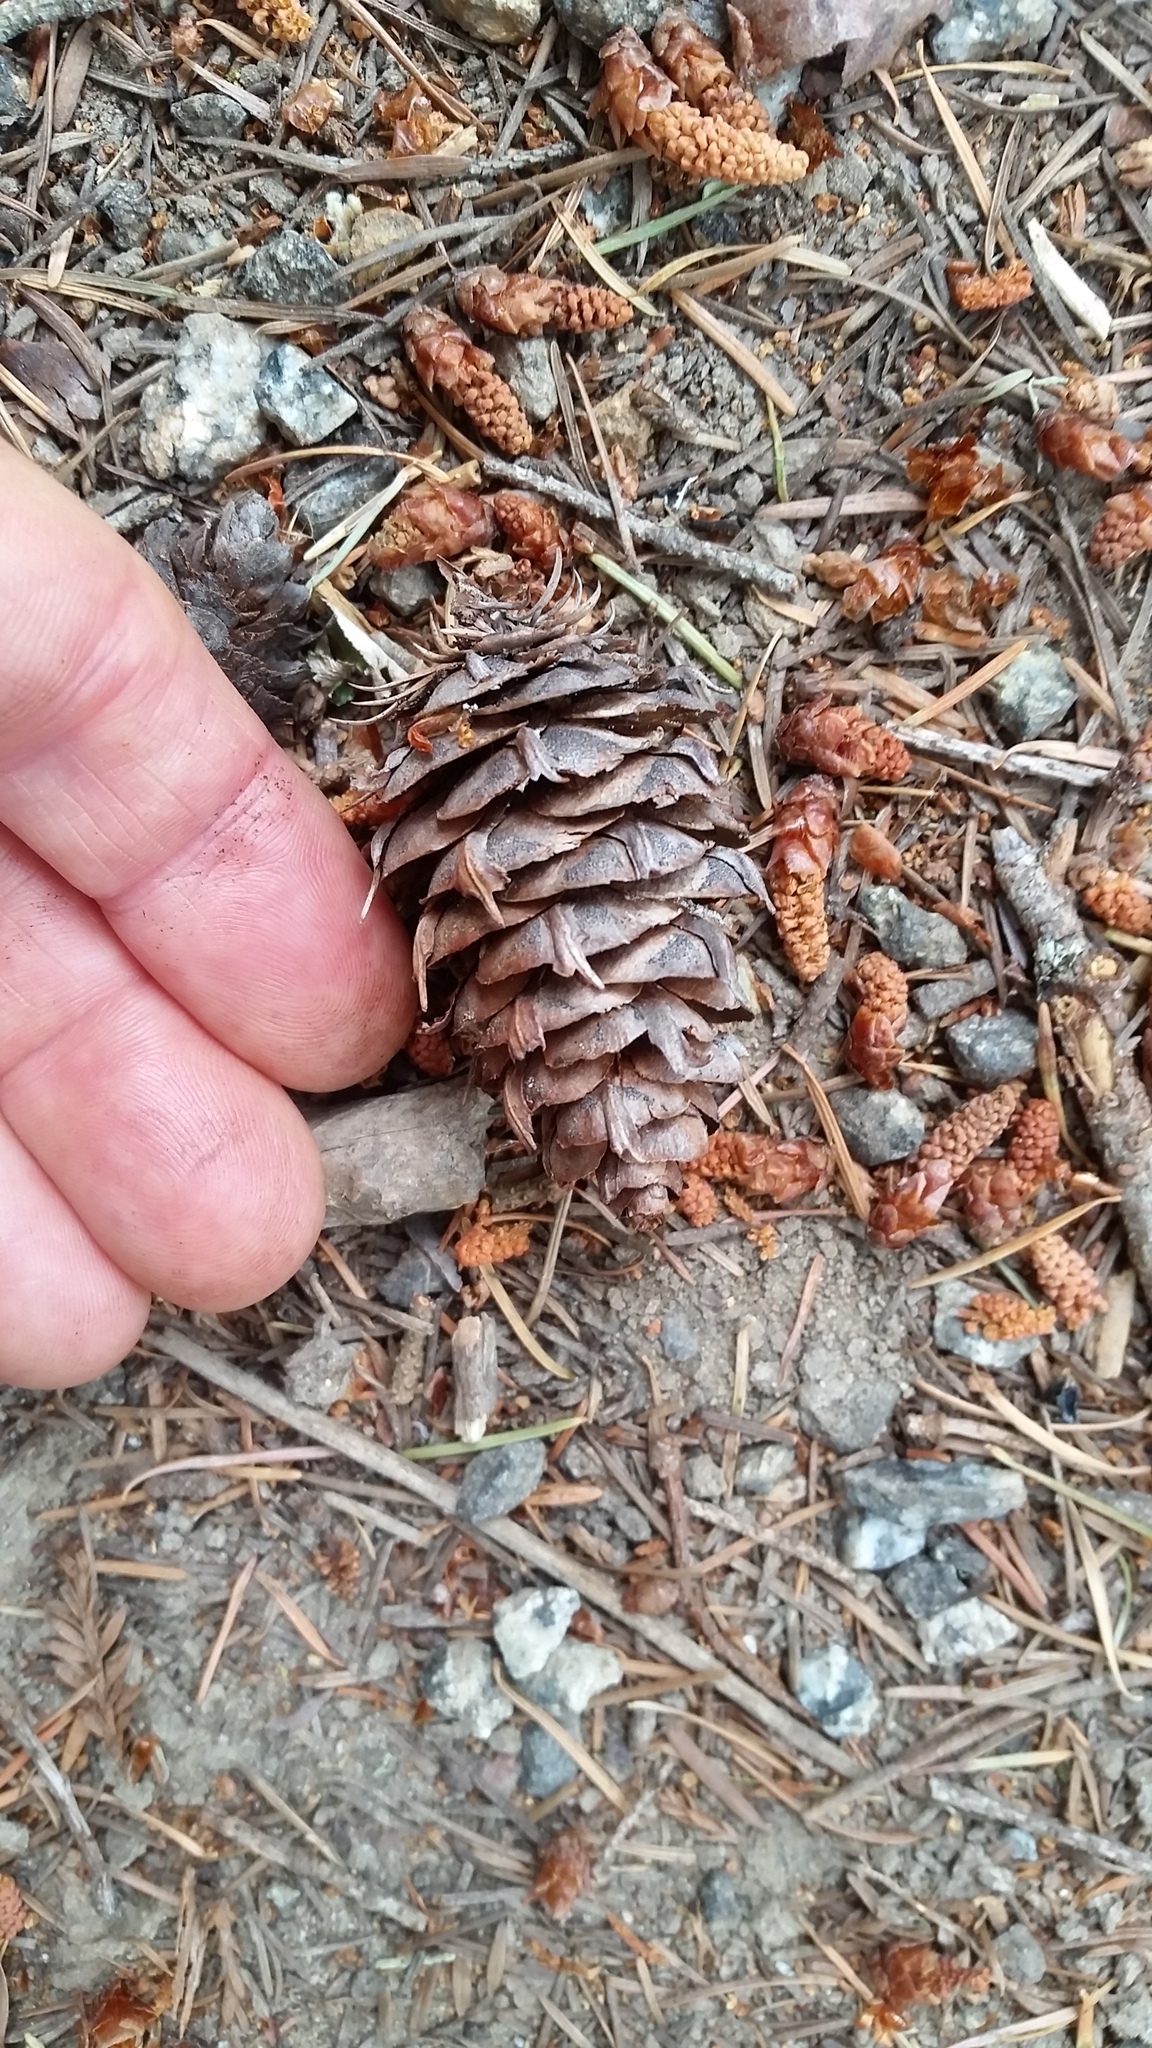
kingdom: Plantae
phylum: Tracheophyta
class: Pinopsida
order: Pinales
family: Pinaceae
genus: Pseudotsuga
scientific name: Pseudotsuga menziesii
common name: Douglas fir
